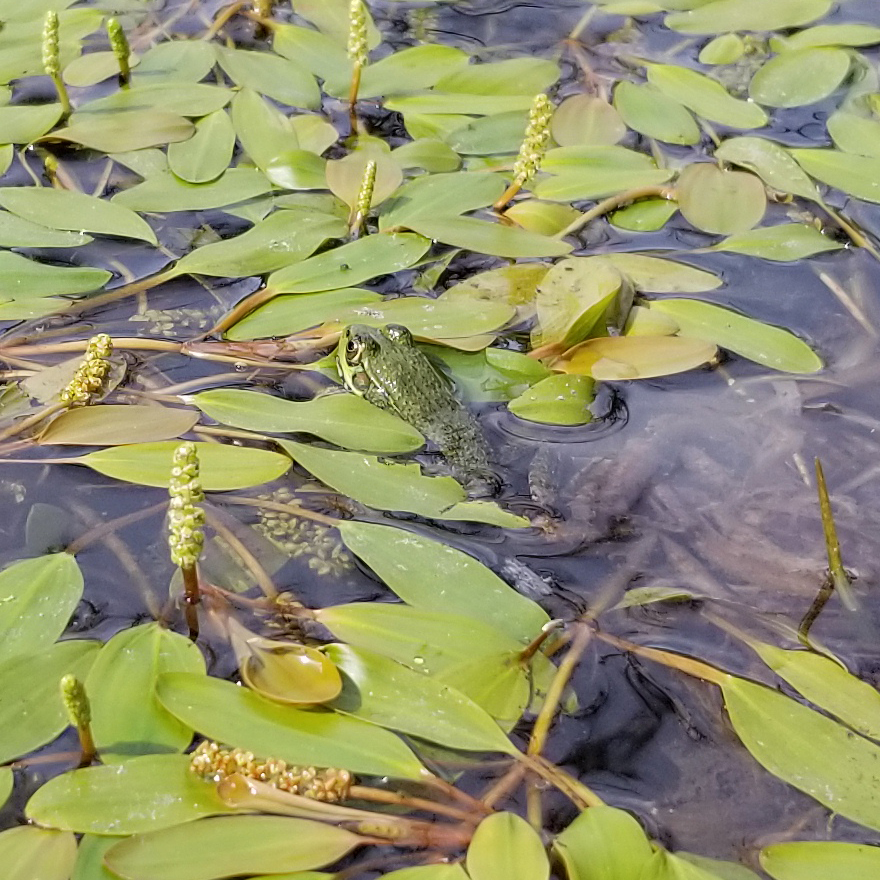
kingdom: Animalia
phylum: Chordata
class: Amphibia
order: Anura
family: Ranidae
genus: Lithobates
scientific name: Lithobates clamitans
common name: Green frog
